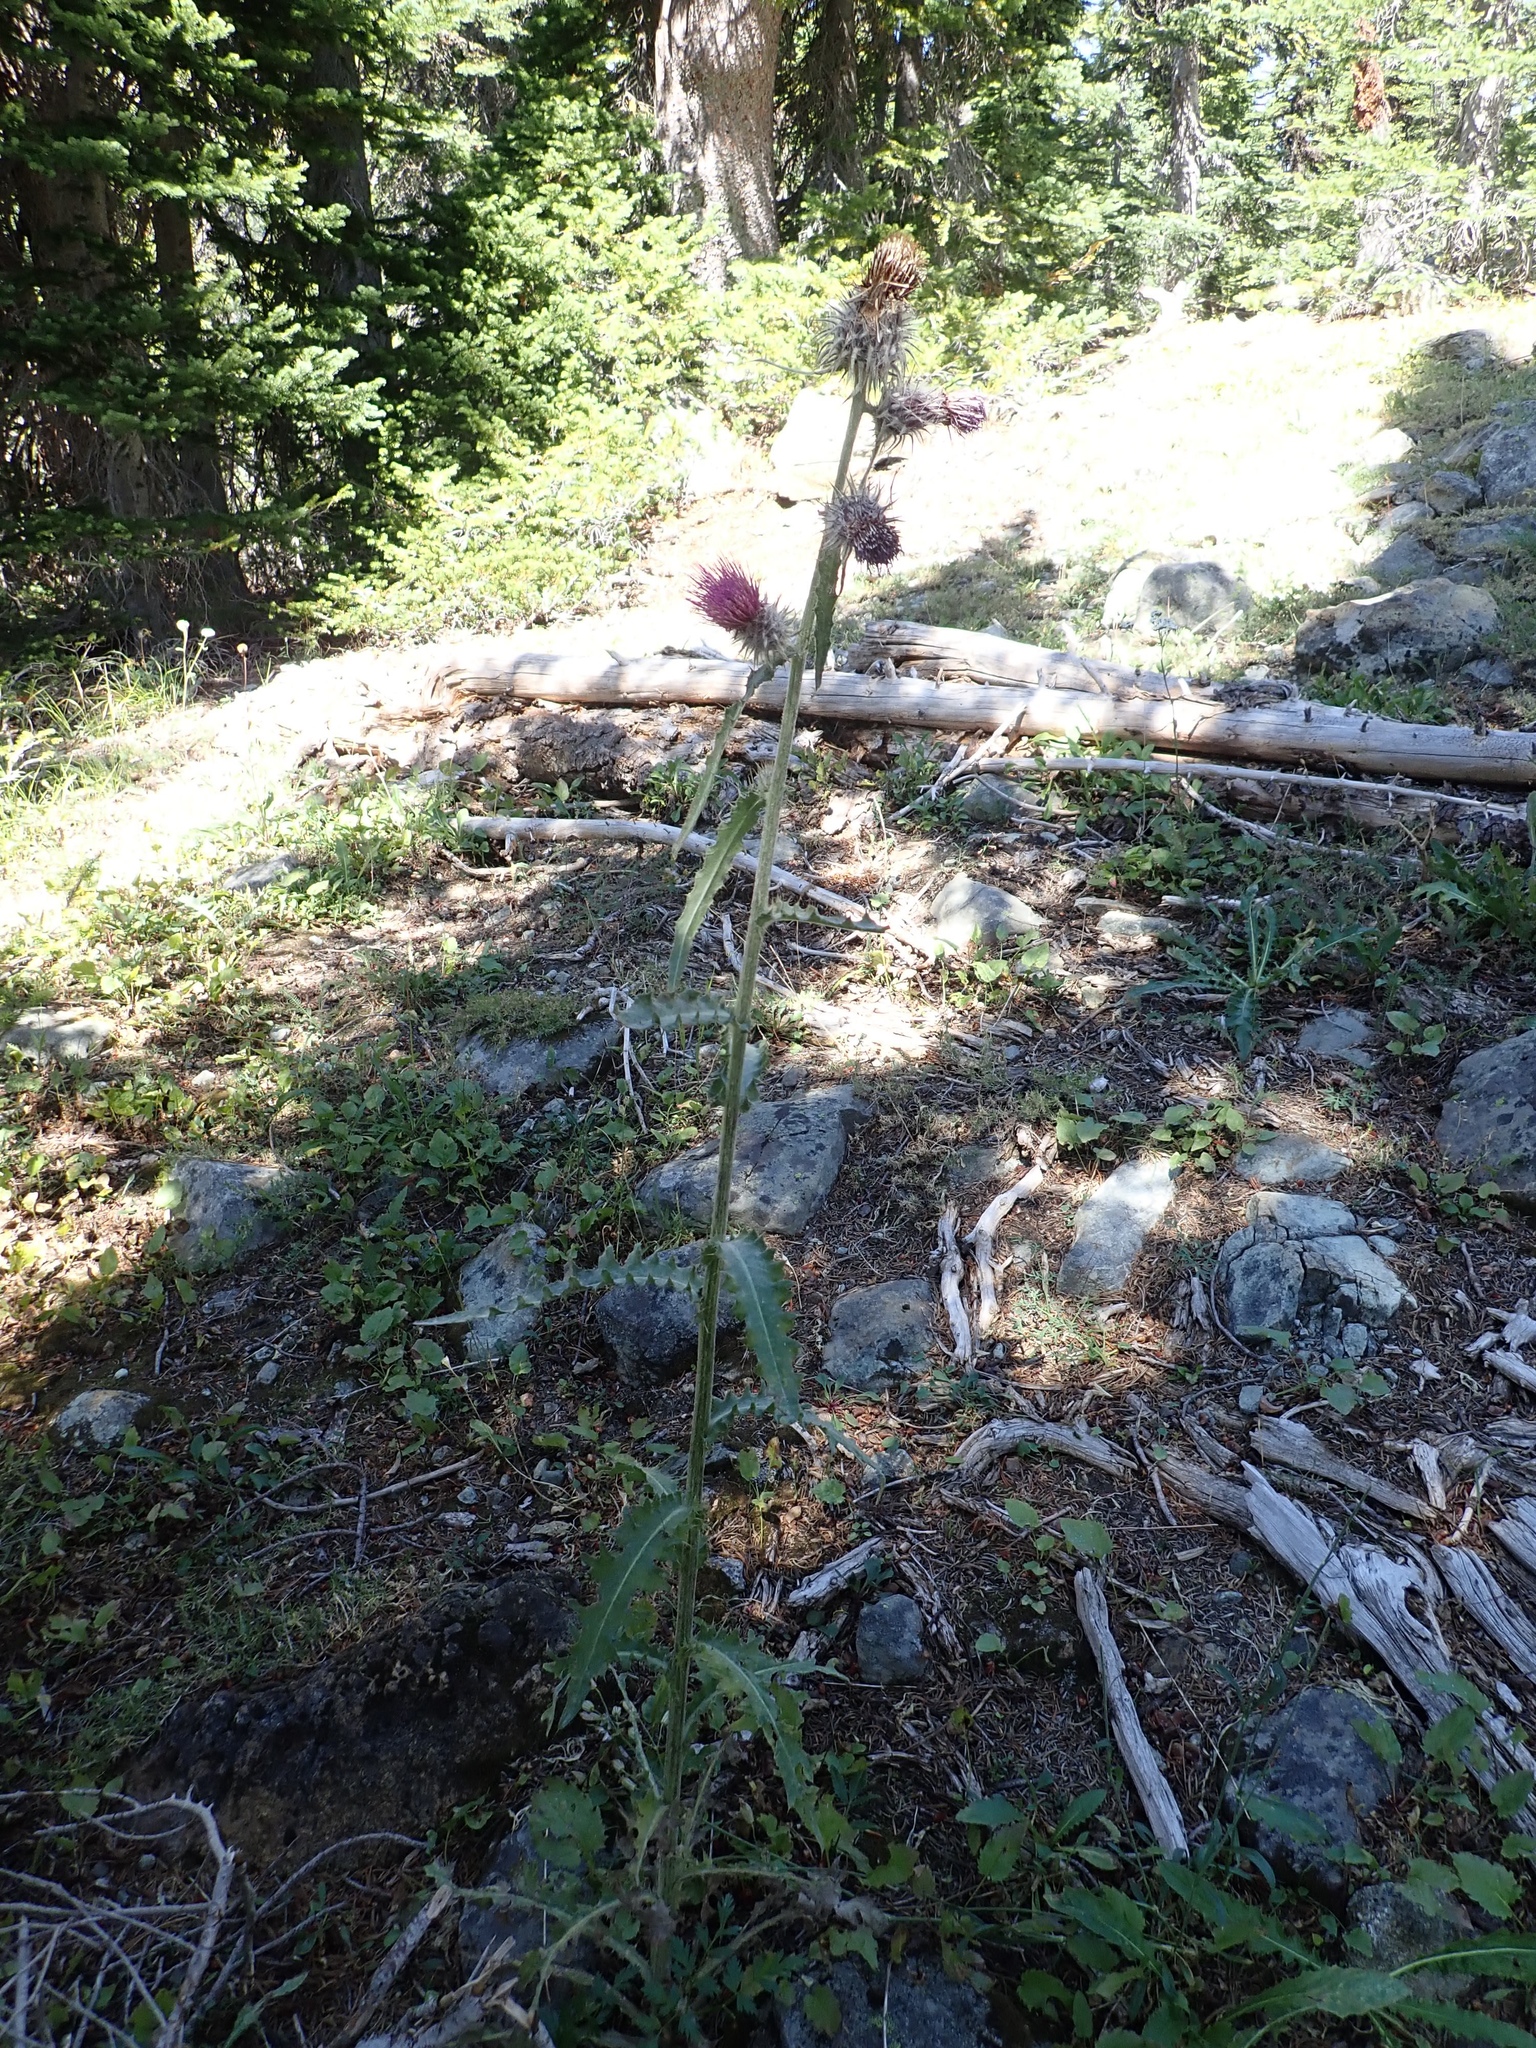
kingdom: Plantae
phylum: Tracheophyta
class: Magnoliopsida
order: Asterales
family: Asteraceae
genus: Cirsium
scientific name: Cirsium edule
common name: Indian thistle
